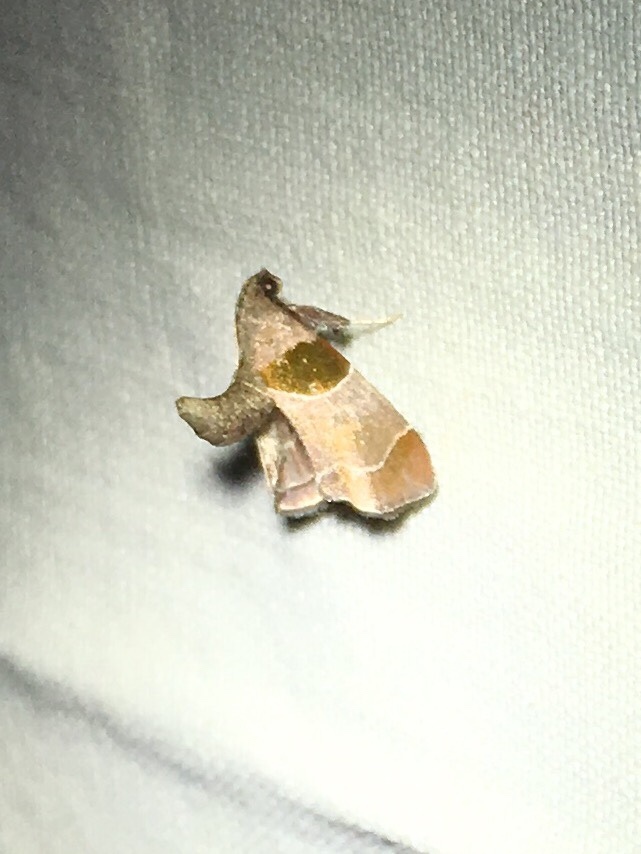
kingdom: Animalia
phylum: Arthropoda
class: Insecta
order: Lepidoptera
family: Pyralidae
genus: Tosale
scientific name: Tosale oviplagalis
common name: Dimorphic tosale moth
